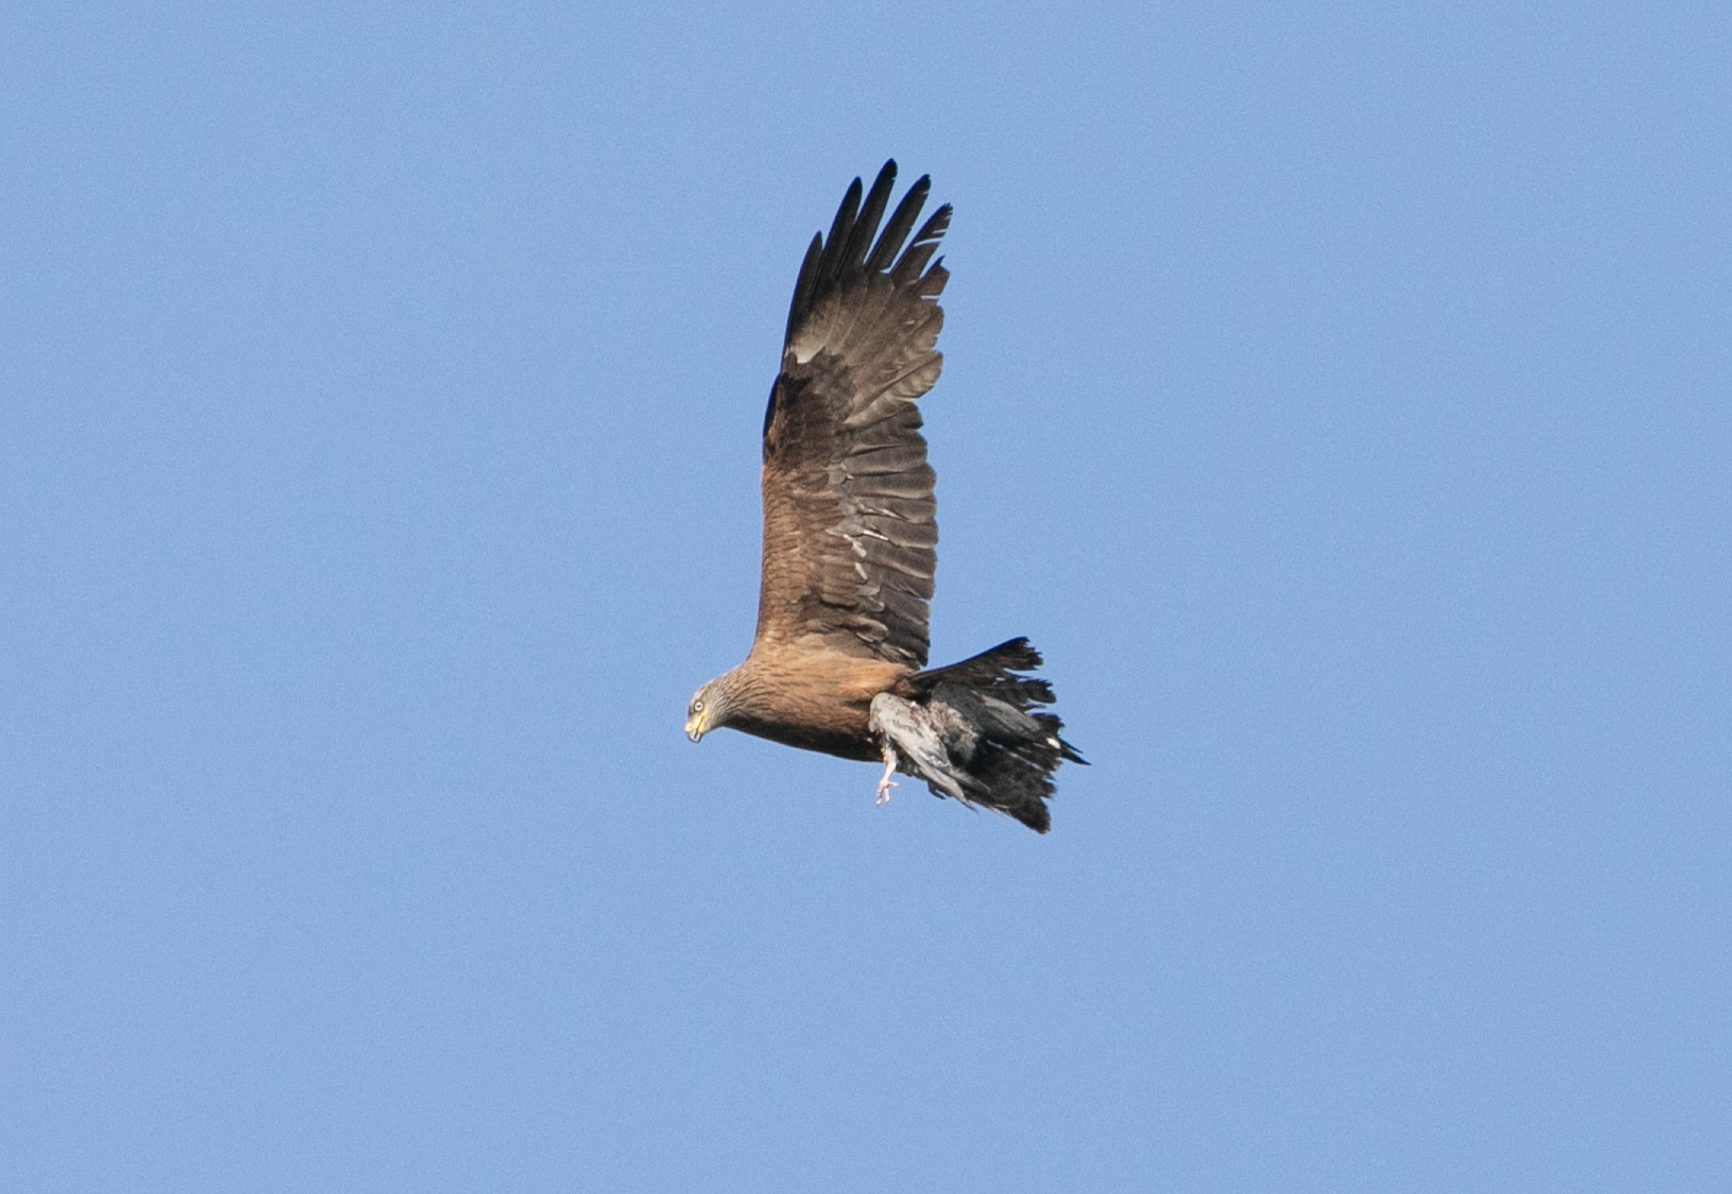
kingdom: Animalia
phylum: Chordata
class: Aves
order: Accipitriformes
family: Accipitridae
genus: Milvus
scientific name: Milvus migrans
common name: Black kite
